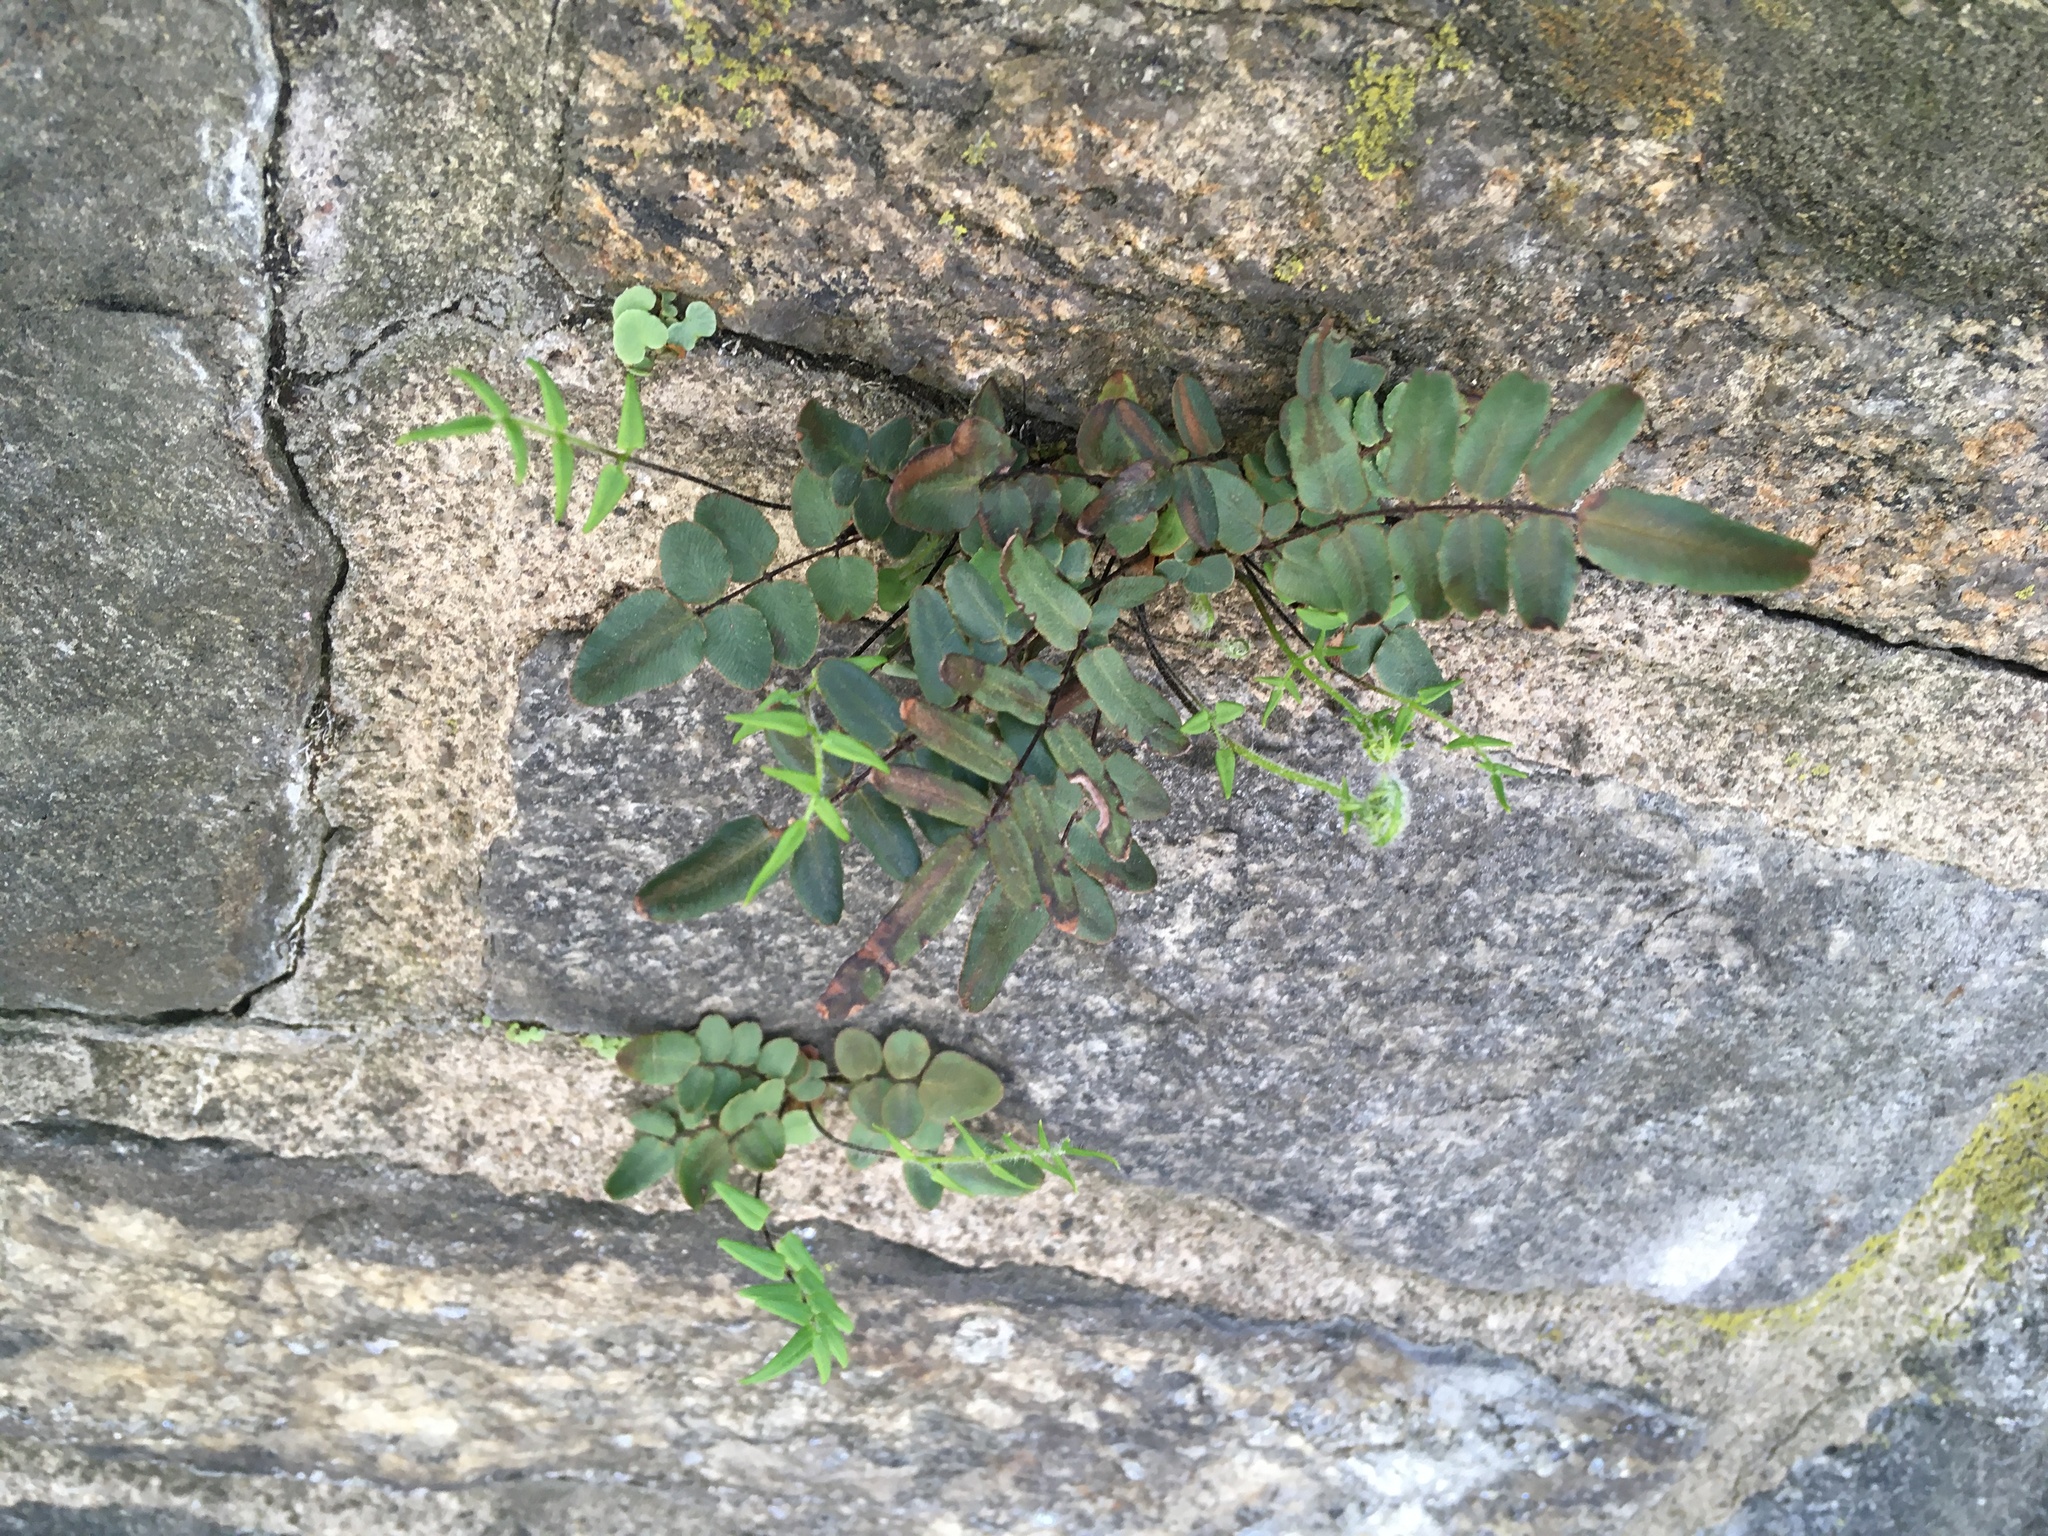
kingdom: Plantae
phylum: Tracheophyta
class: Polypodiopsida
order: Polypodiales
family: Pteridaceae
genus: Pellaea
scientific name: Pellaea atropurpurea
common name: Hairy cliffbrake
